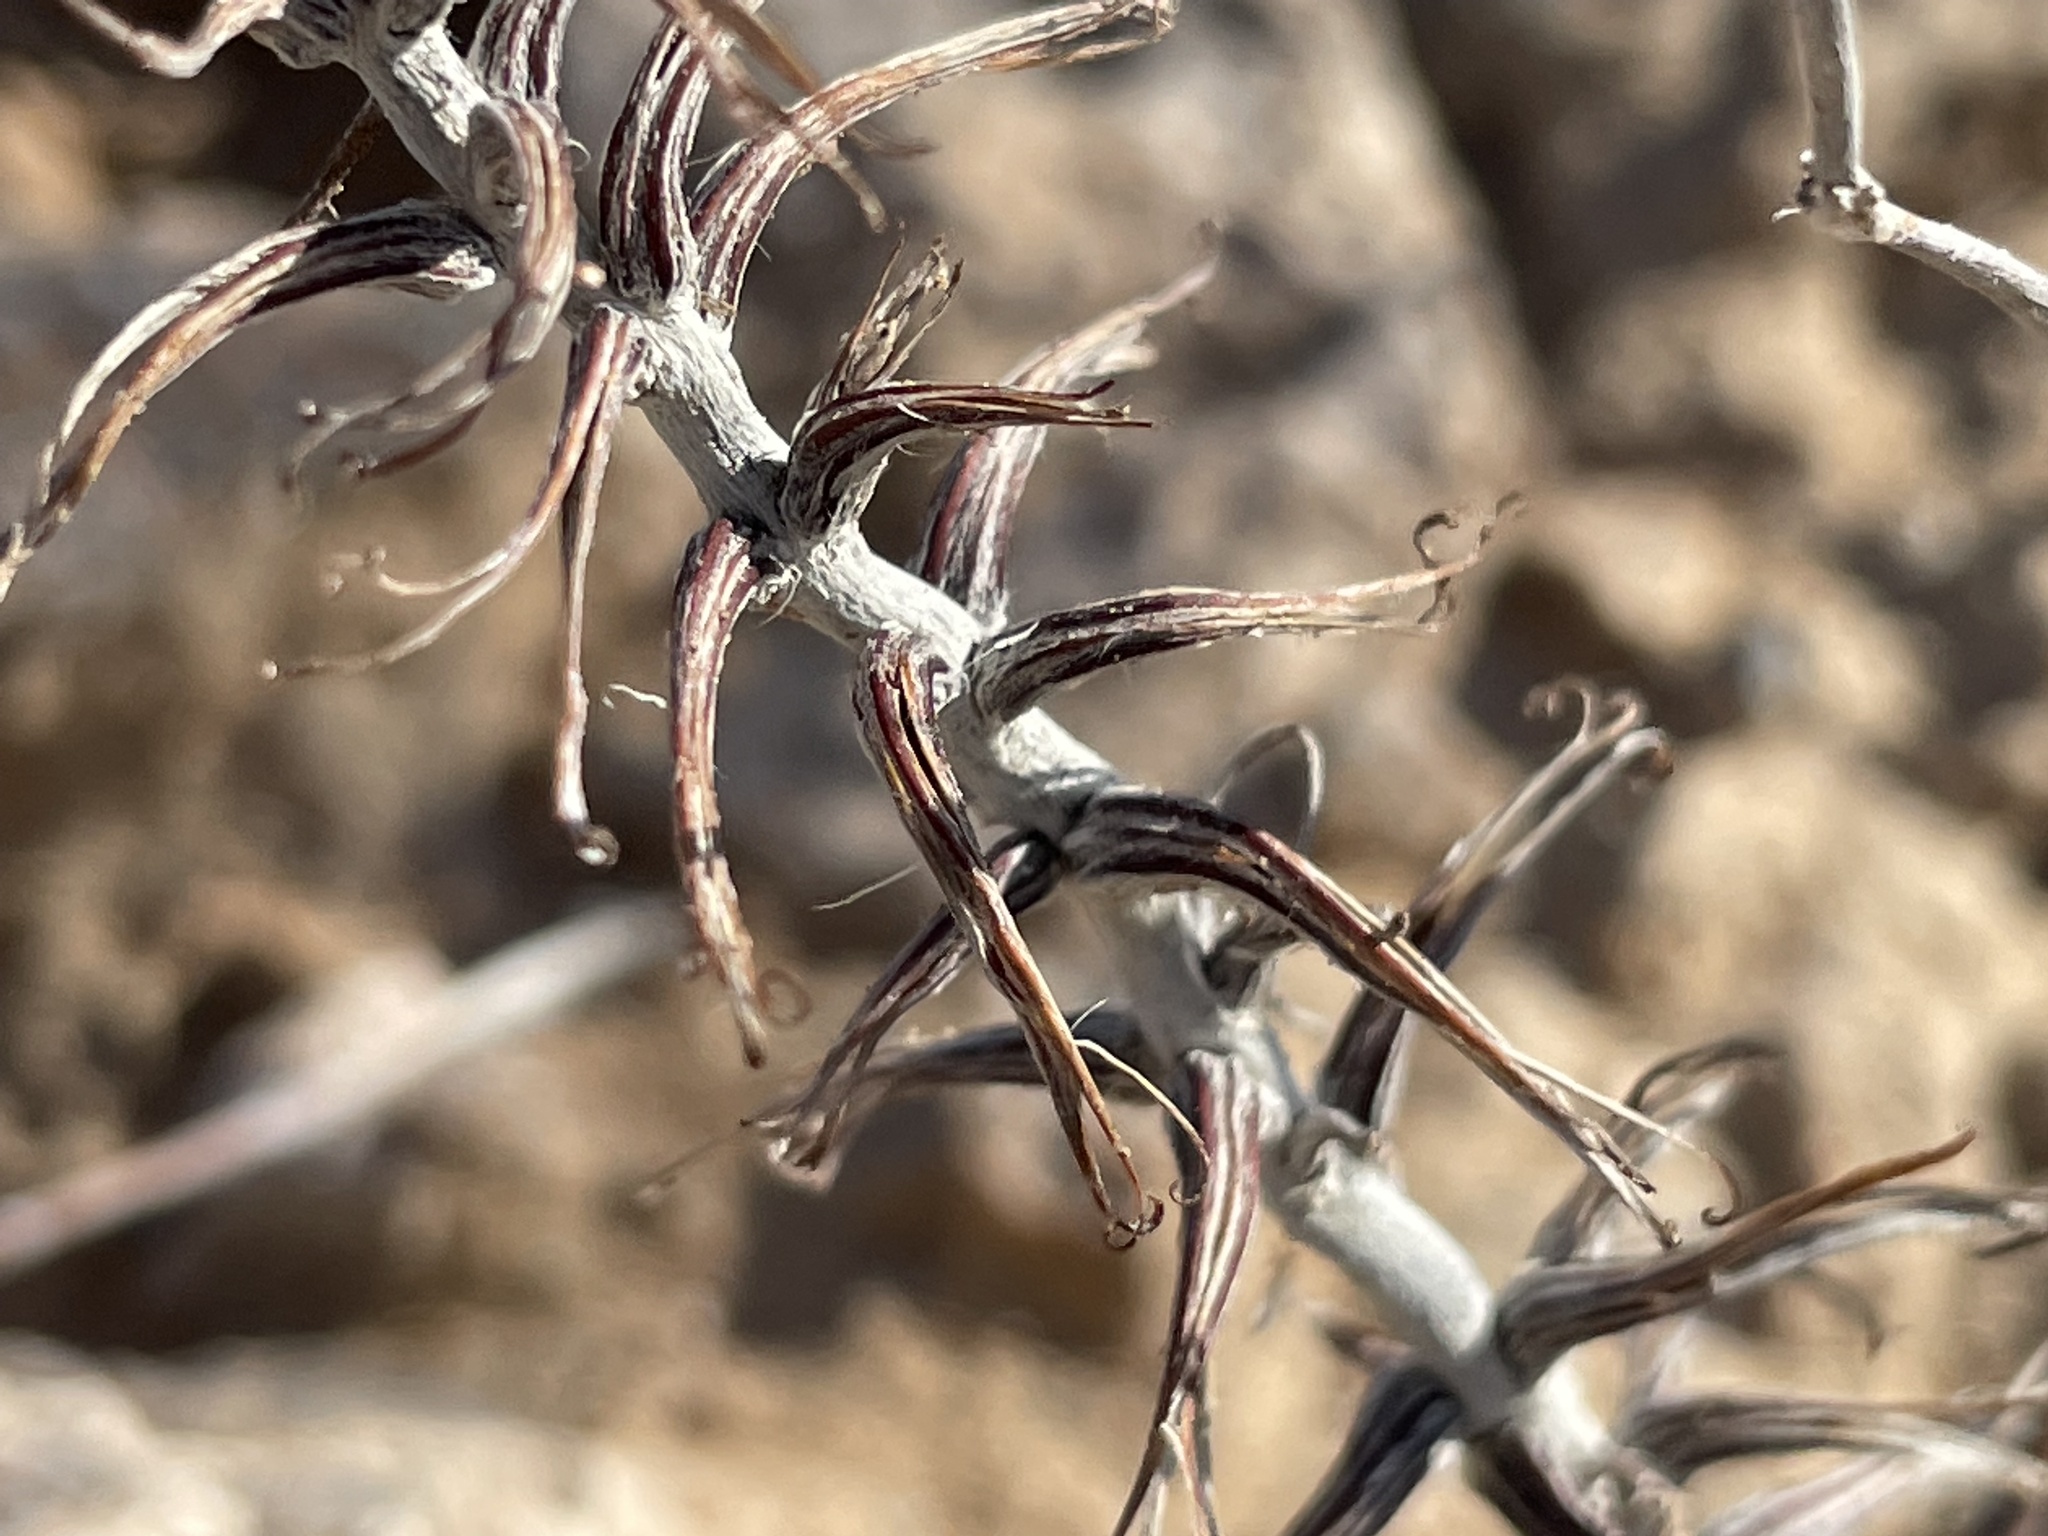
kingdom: Plantae
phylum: Tracheophyta
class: Magnoliopsida
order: Myrtales
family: Onagraceae
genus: Eremothera
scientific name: Eremothera boothii
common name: Booth's evening primrose
